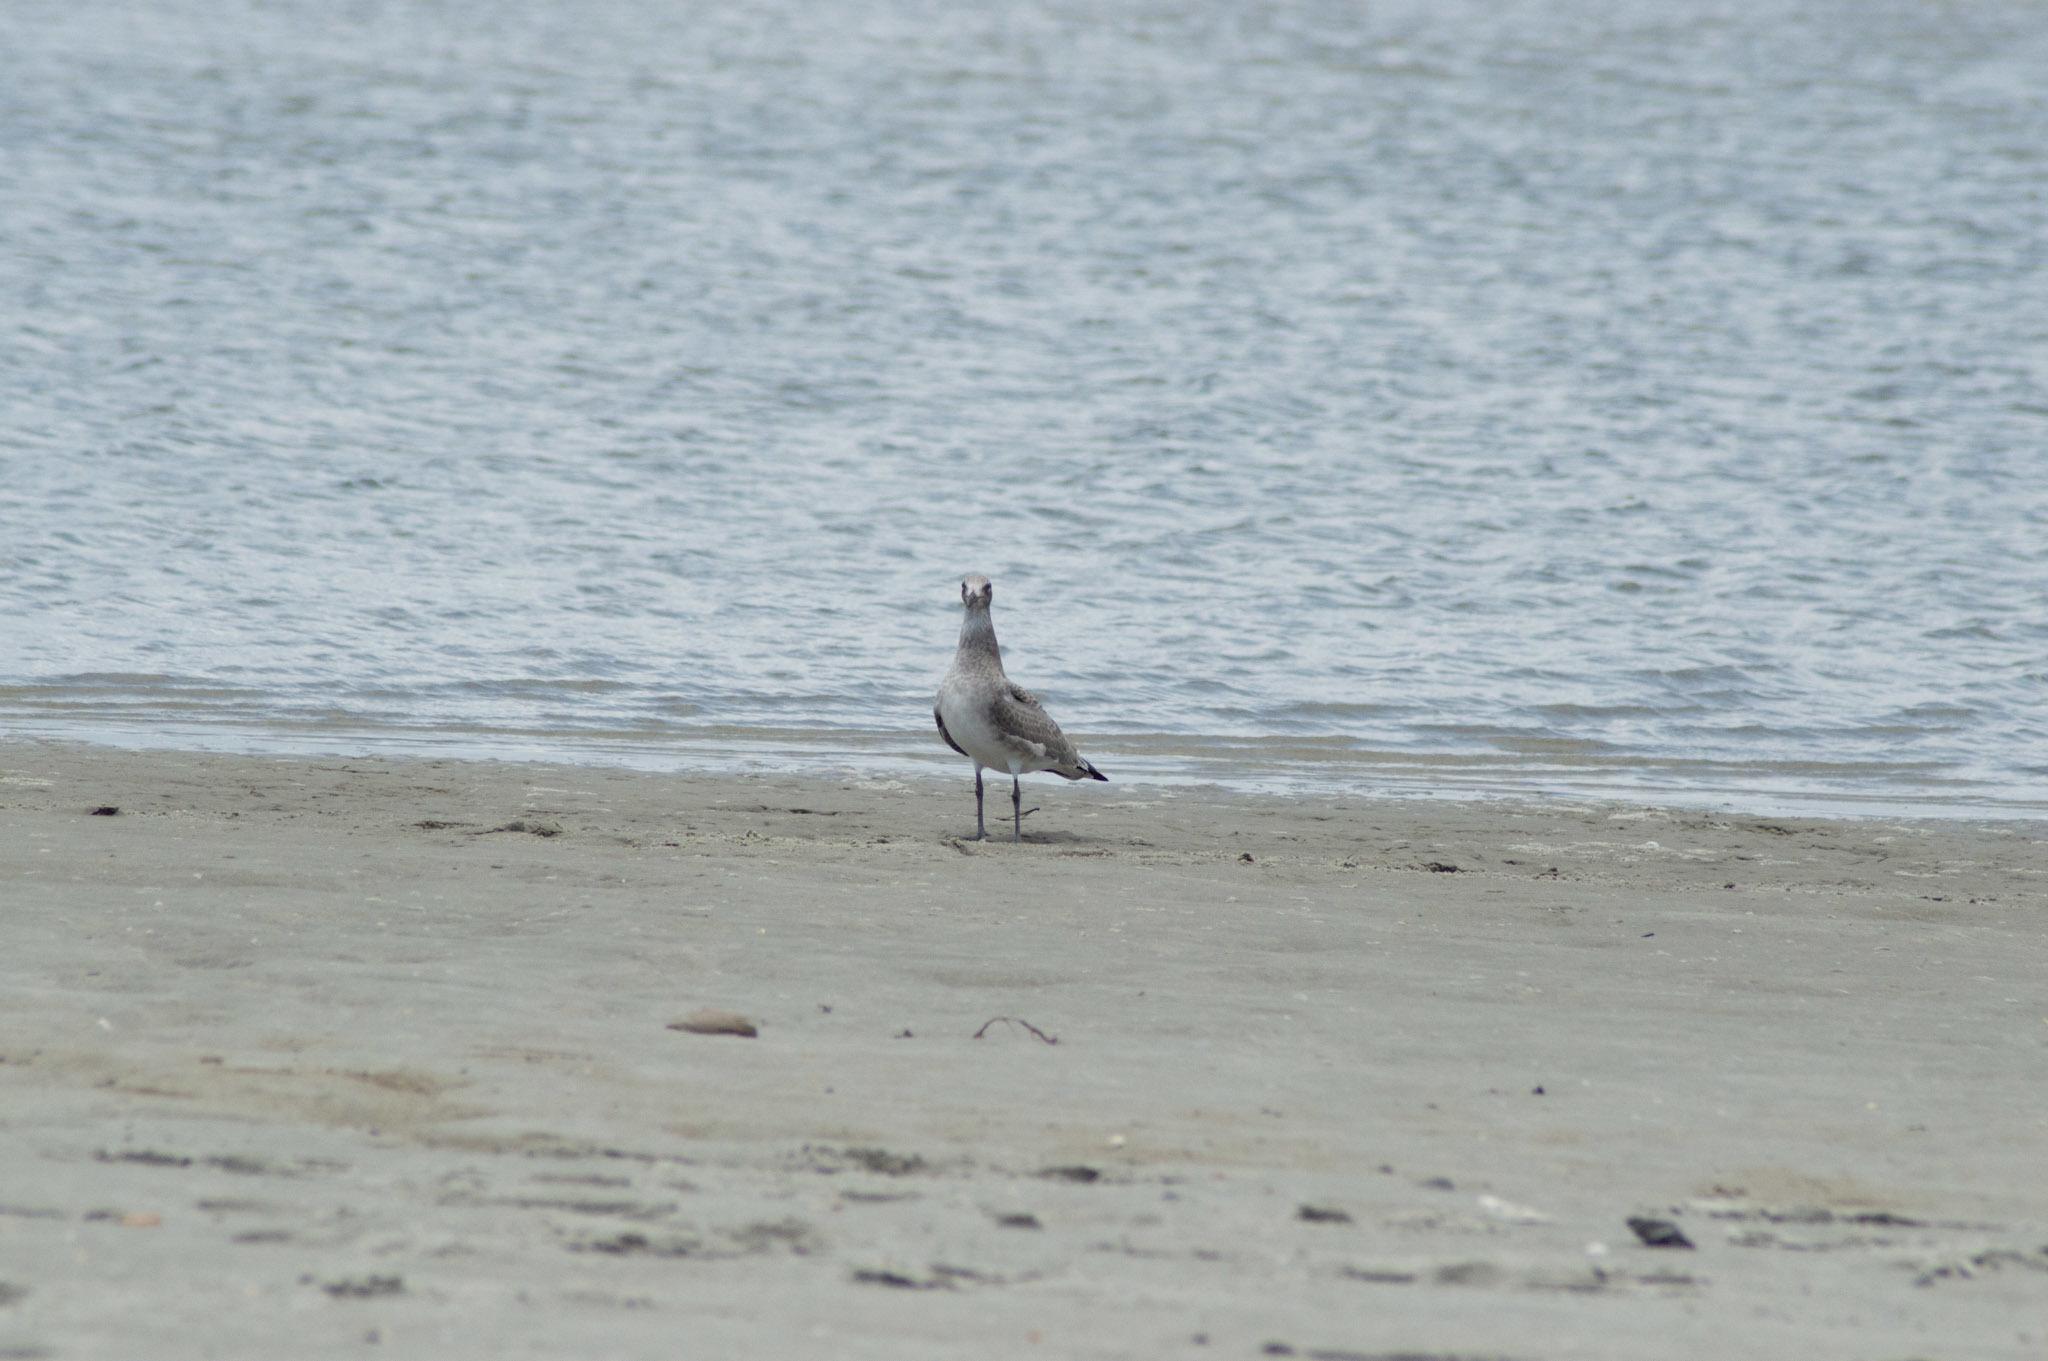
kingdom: Animalia
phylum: Chordata
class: Aves
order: Charadriiformes
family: Laridae
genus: Leucophaeus
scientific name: Leucophaeus atricilla
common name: Laughing gull
